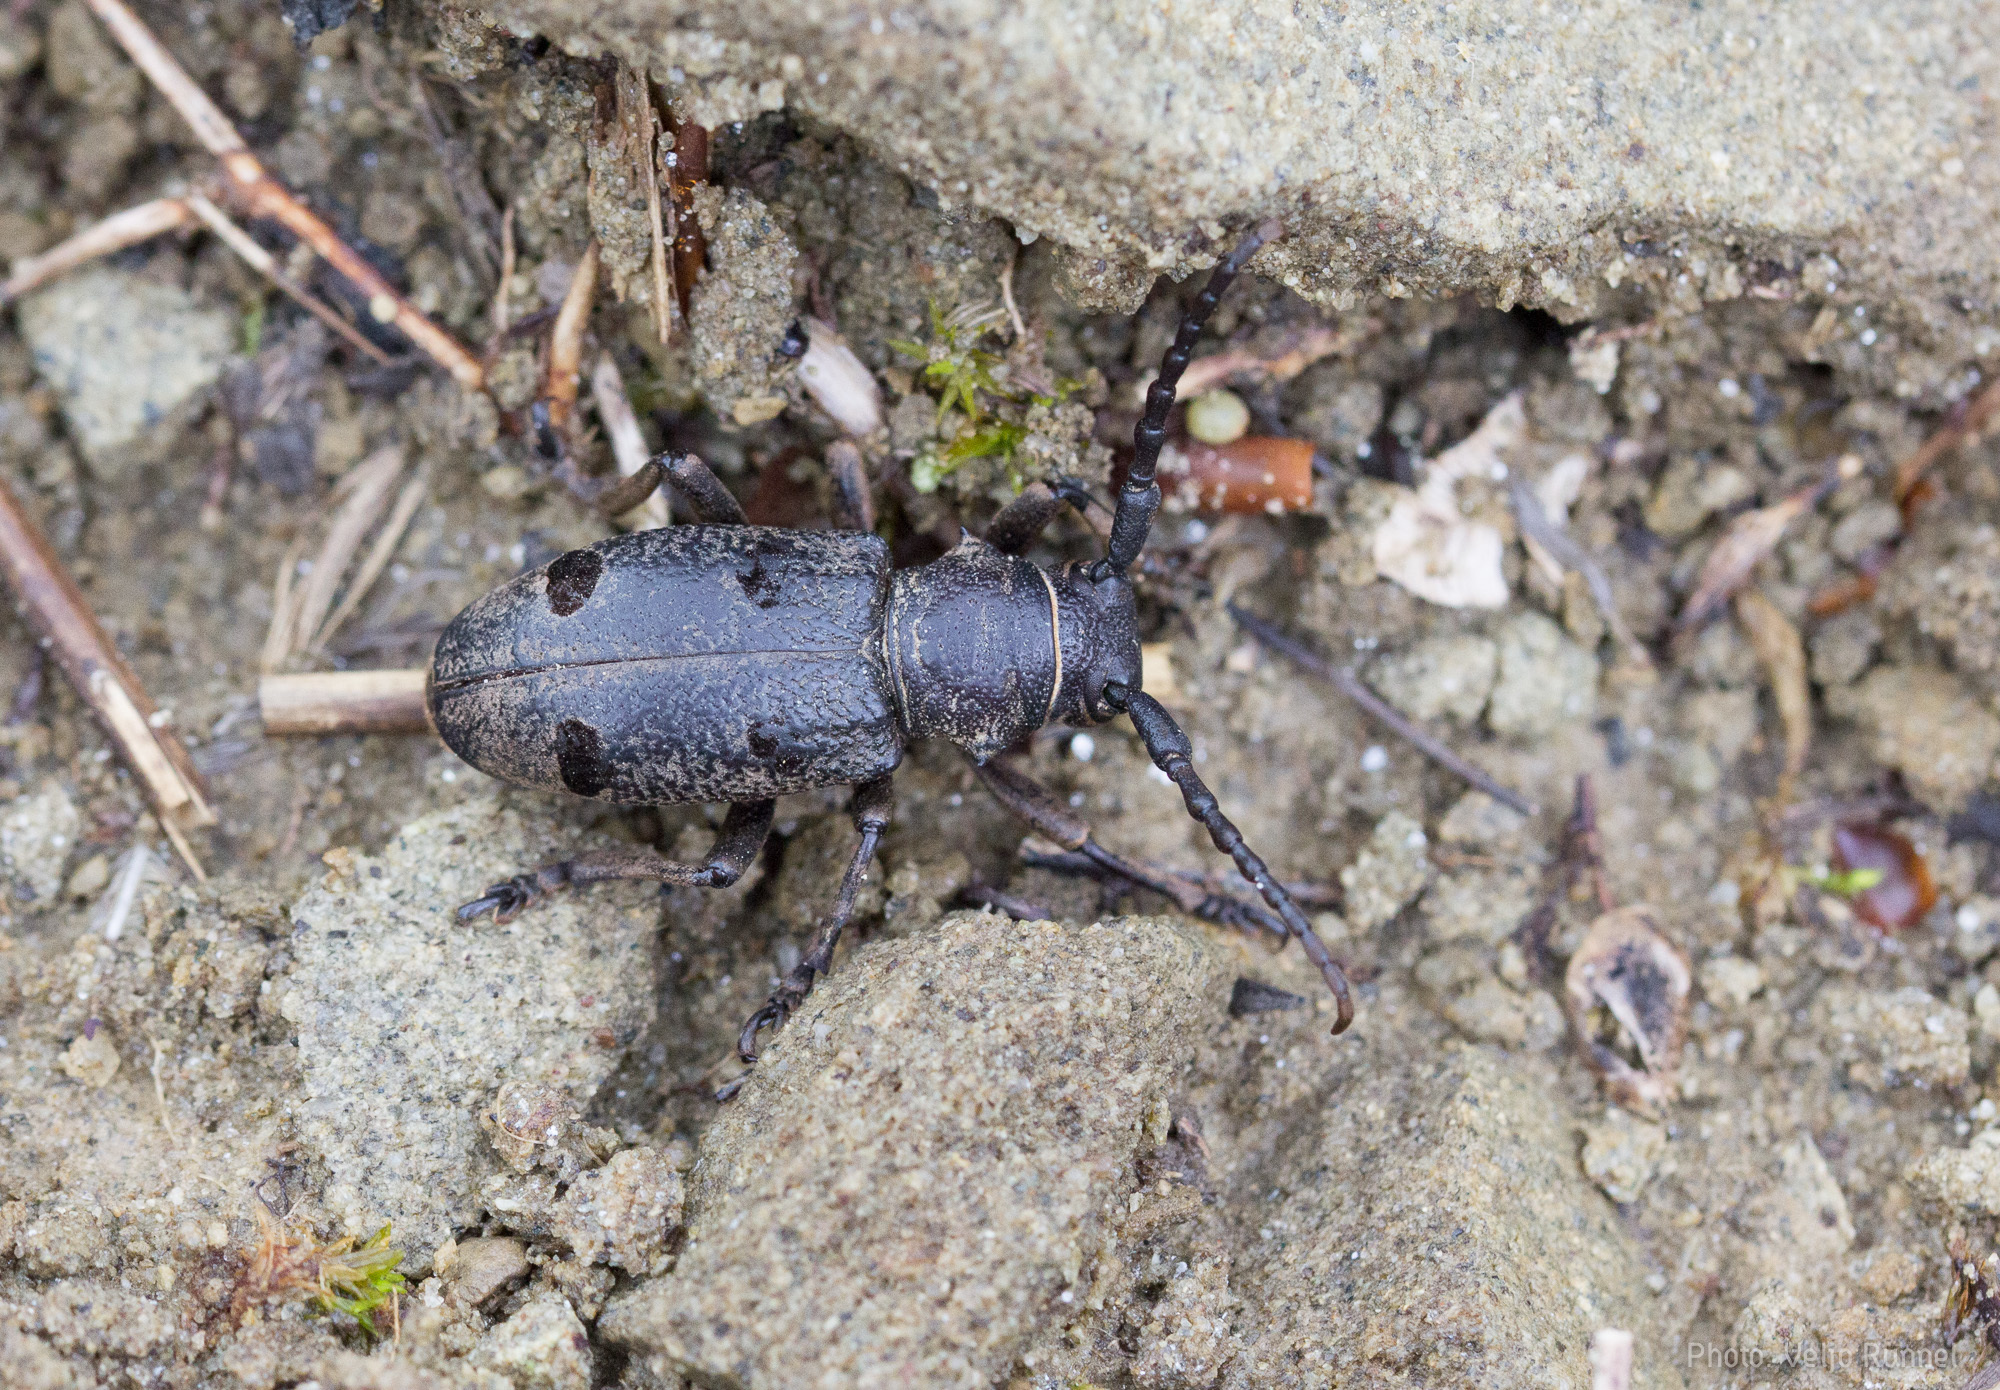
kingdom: Animalia
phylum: Arthropoda
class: Insecta
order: Coleoptera
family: Cerambycidae
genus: Herophila
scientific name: Herophila tristis
